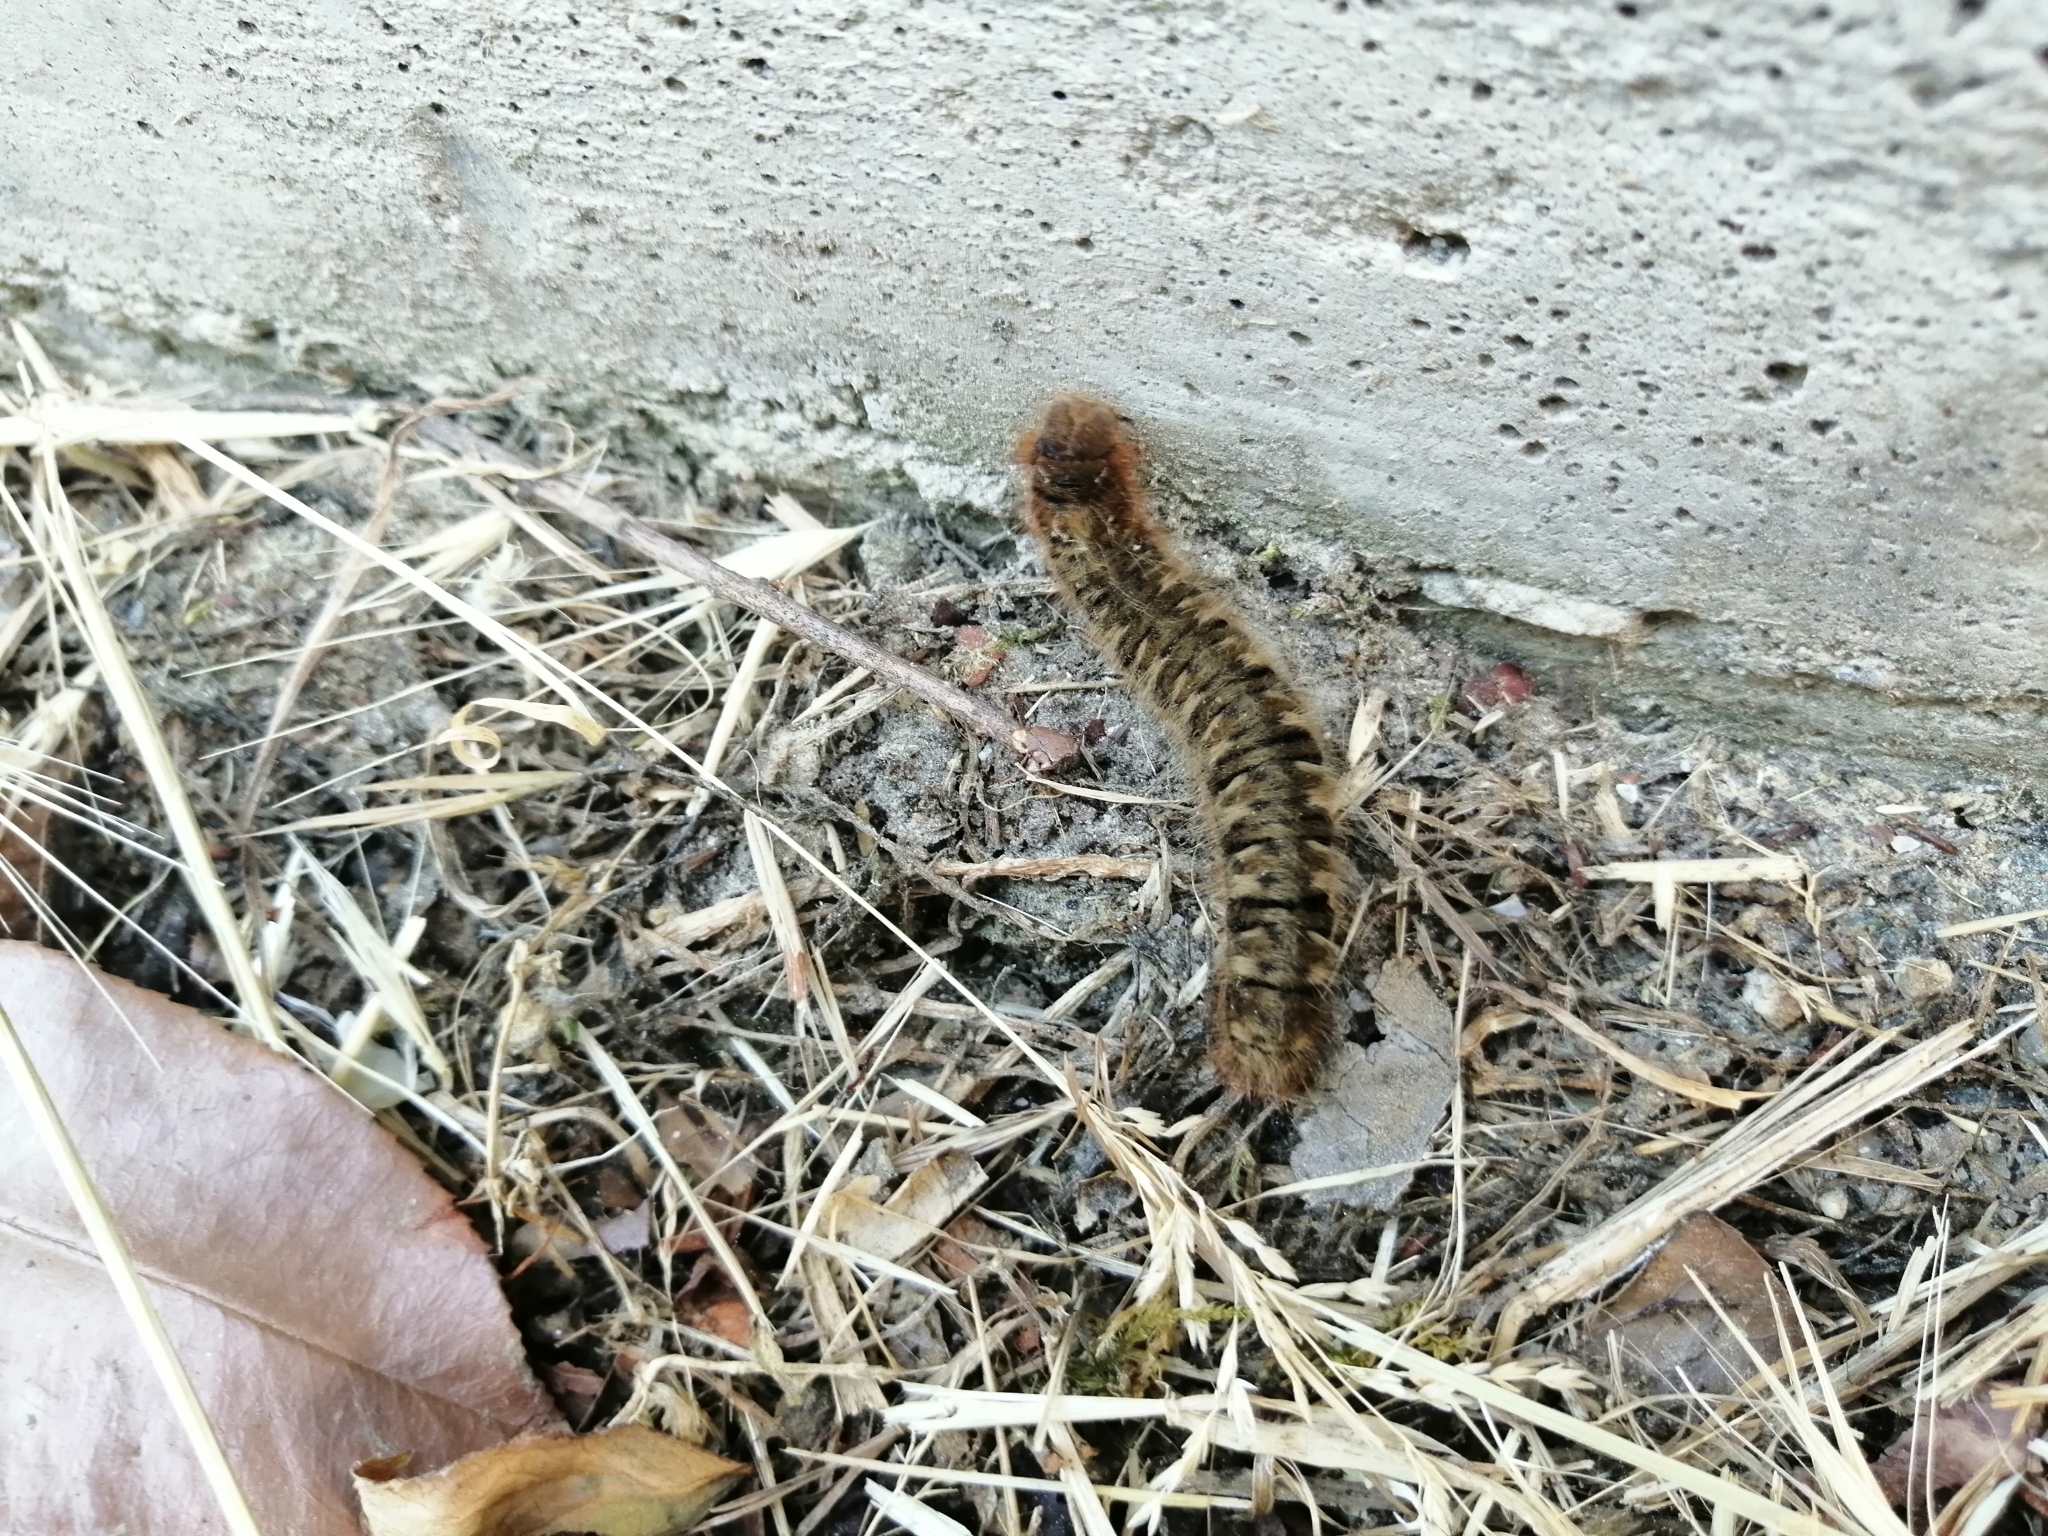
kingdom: Animalia
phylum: Arthropoda
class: Insecta
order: Lepidoptera
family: Lasiocampidae
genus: Lasiocampa
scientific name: Lasiocampa quercus
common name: Oak eggar
